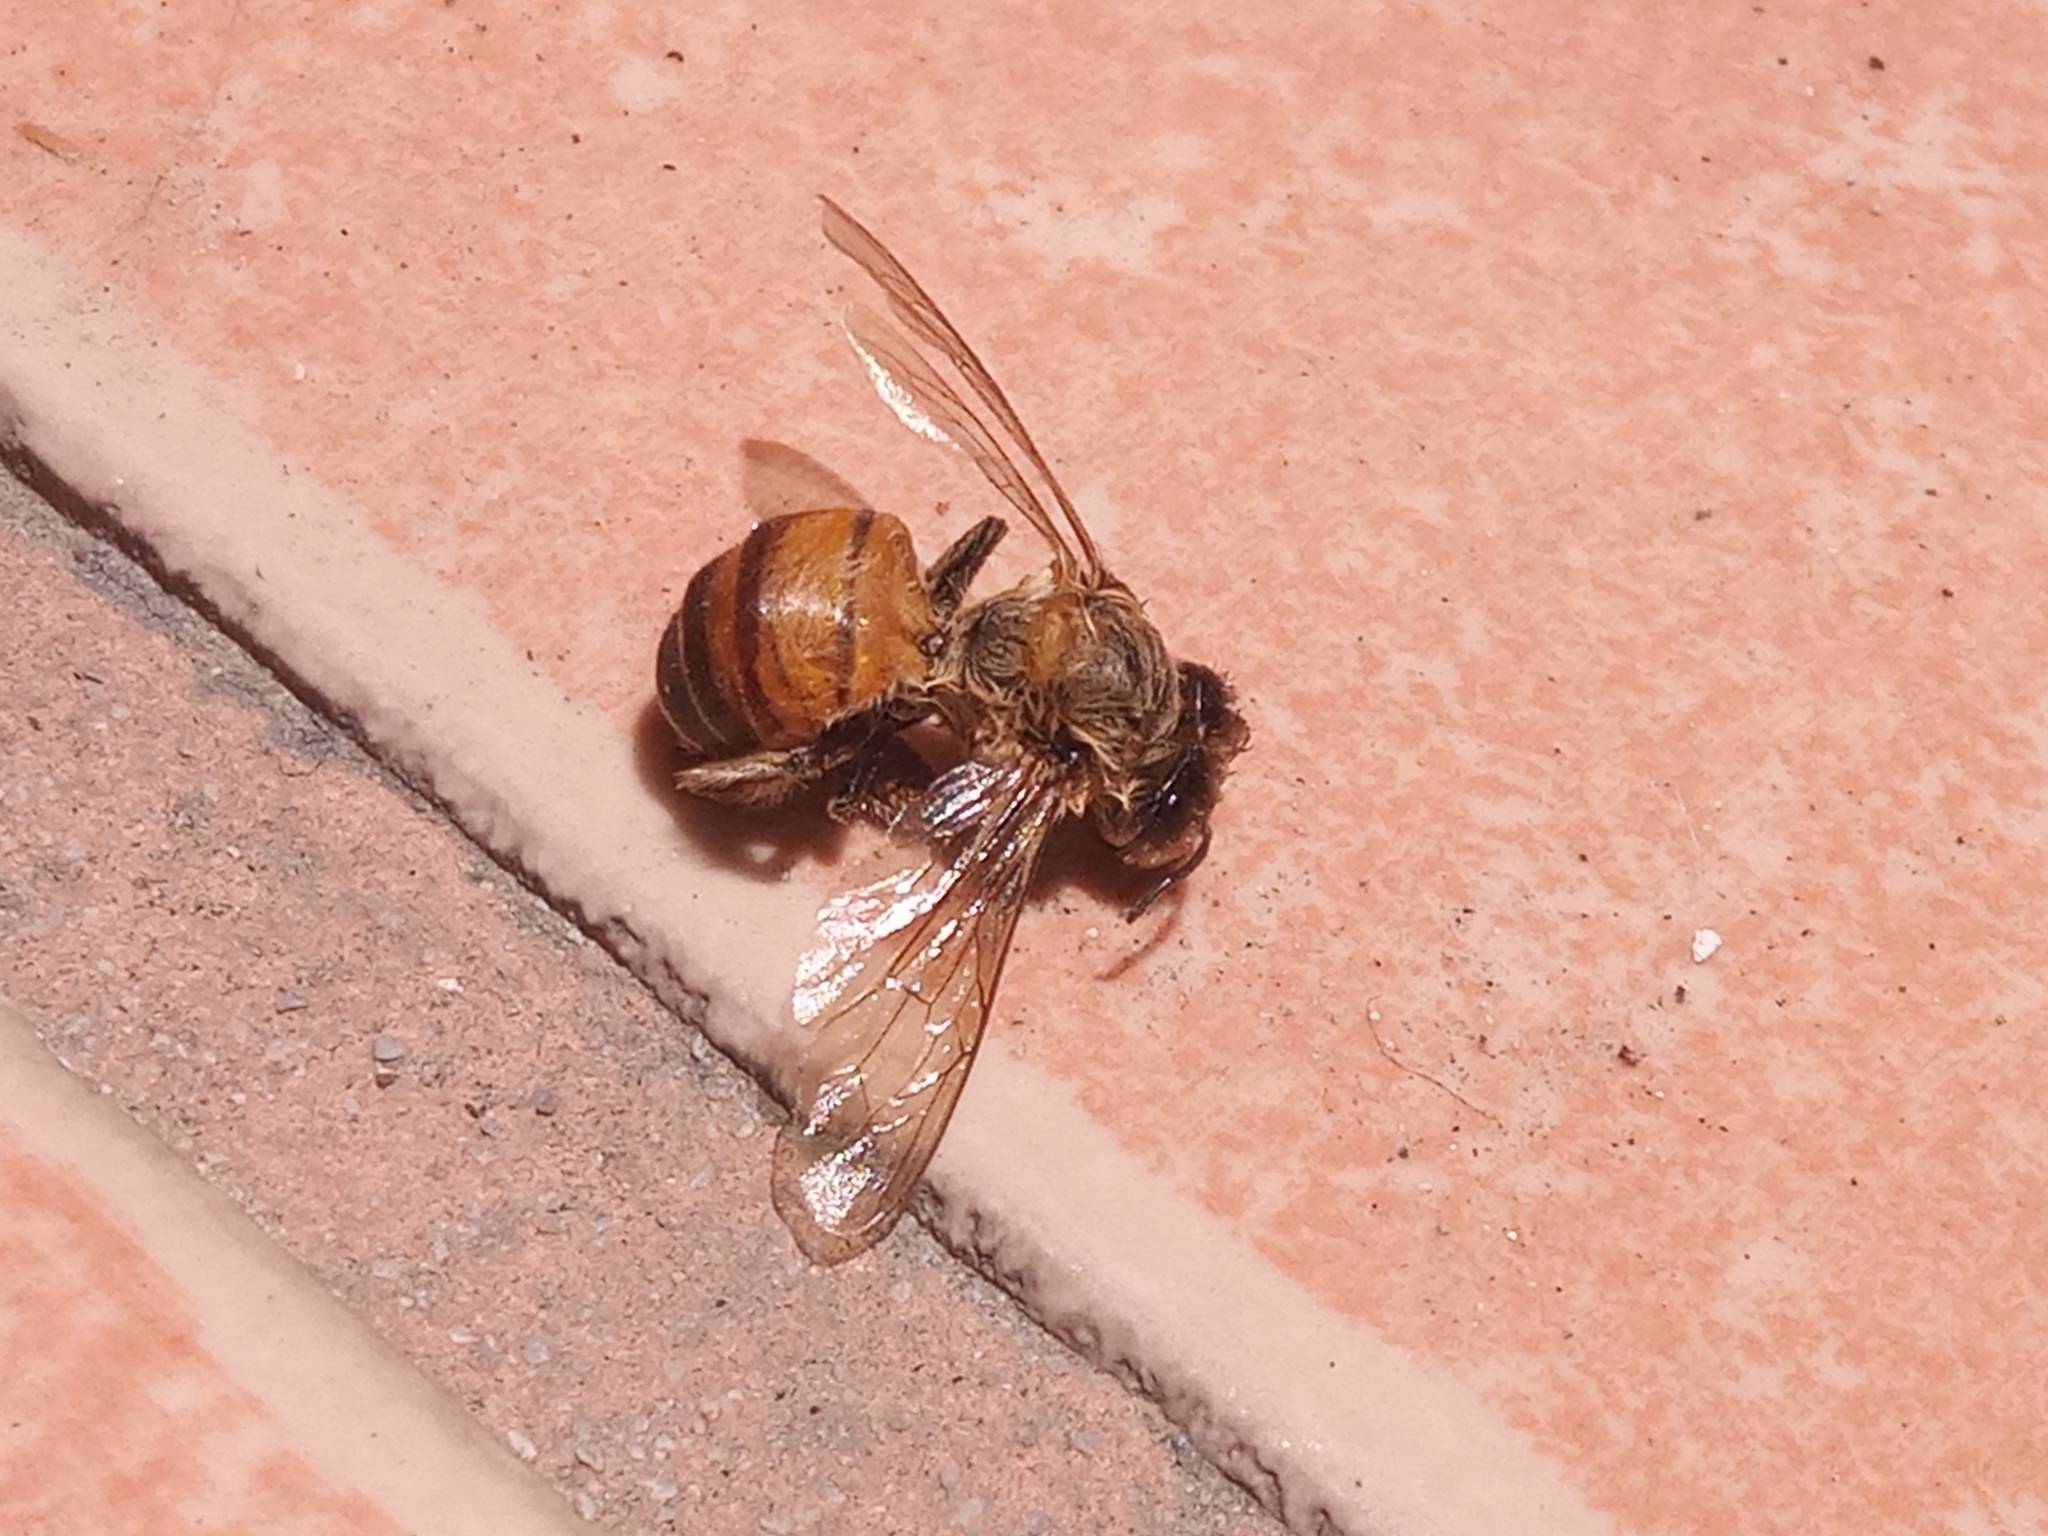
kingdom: Animalia
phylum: Arthropoda
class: Insecta
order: Hymenoptera
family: Apidae
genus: Apis
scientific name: Apis mellifera
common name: Honey bee
